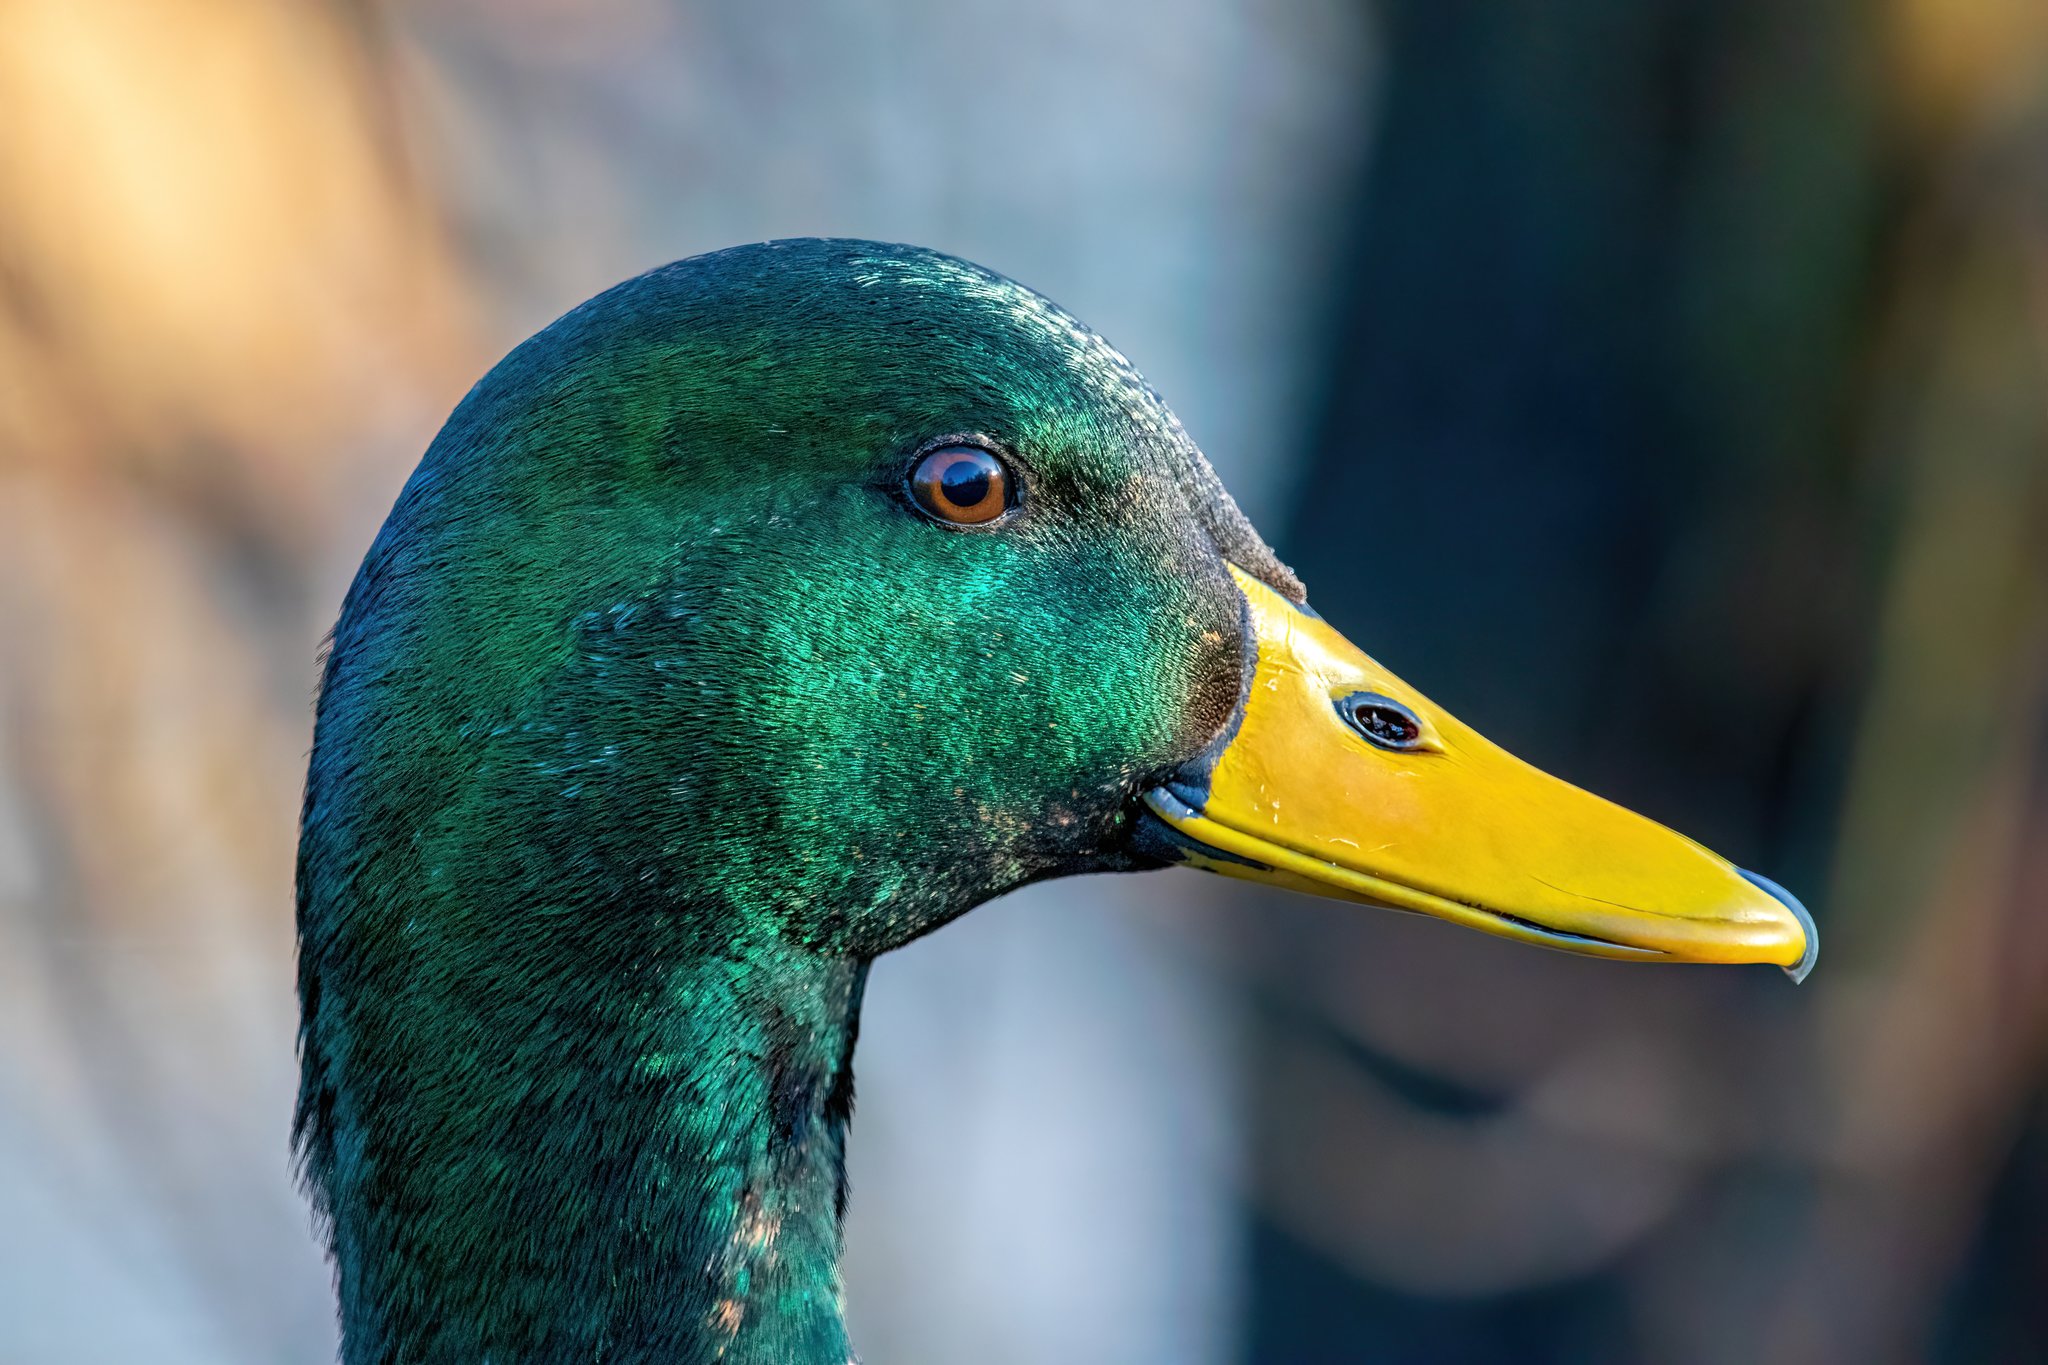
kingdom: Animalia
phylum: Chordata
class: Aves
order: Anseriformes
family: Anatidae
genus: Anas
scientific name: Anas platyrhynchos
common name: Mallard
